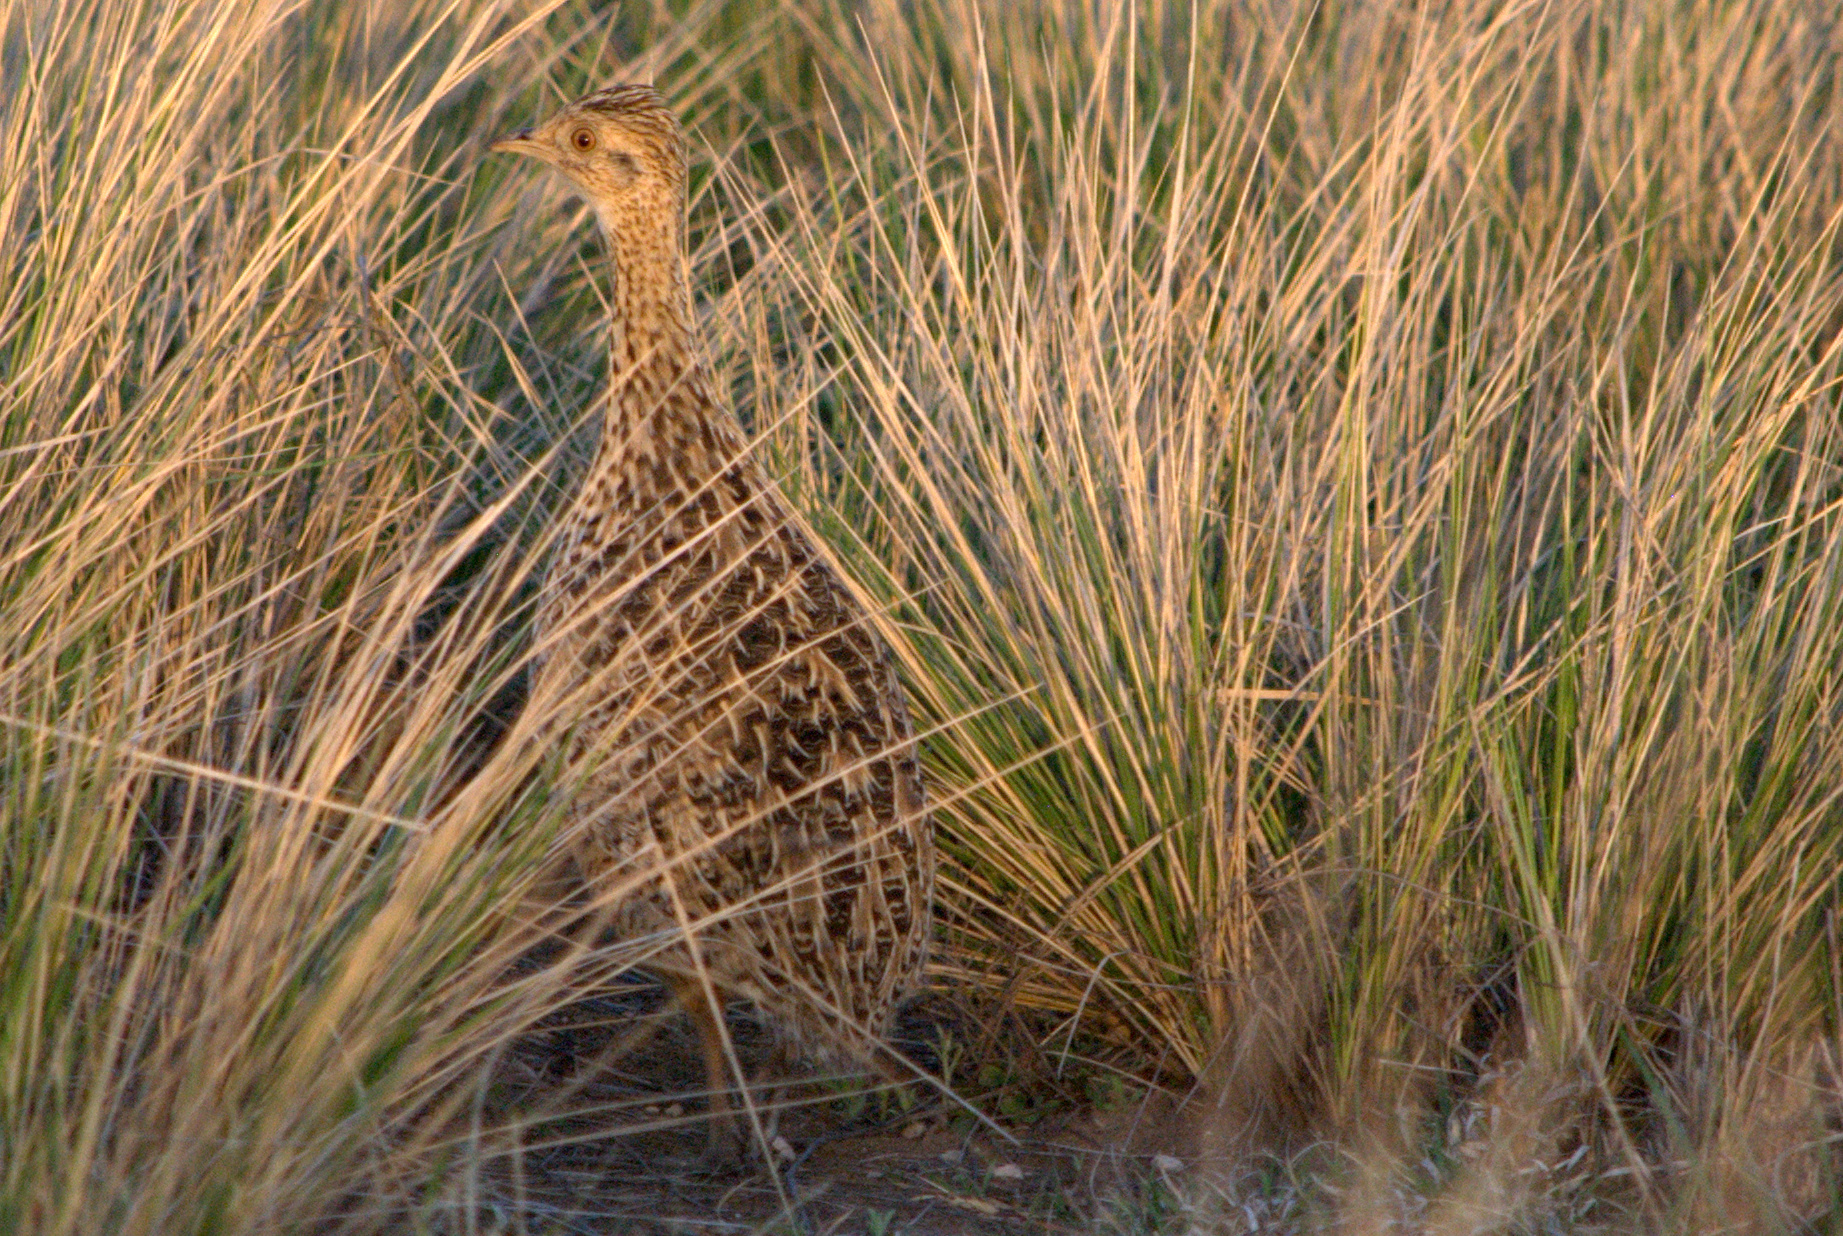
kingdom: Animalia
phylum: Chordata
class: Aves
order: Tinamiformes
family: Tinamidae
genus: Nothura
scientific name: Nothura maculosa
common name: Spotted nothura
